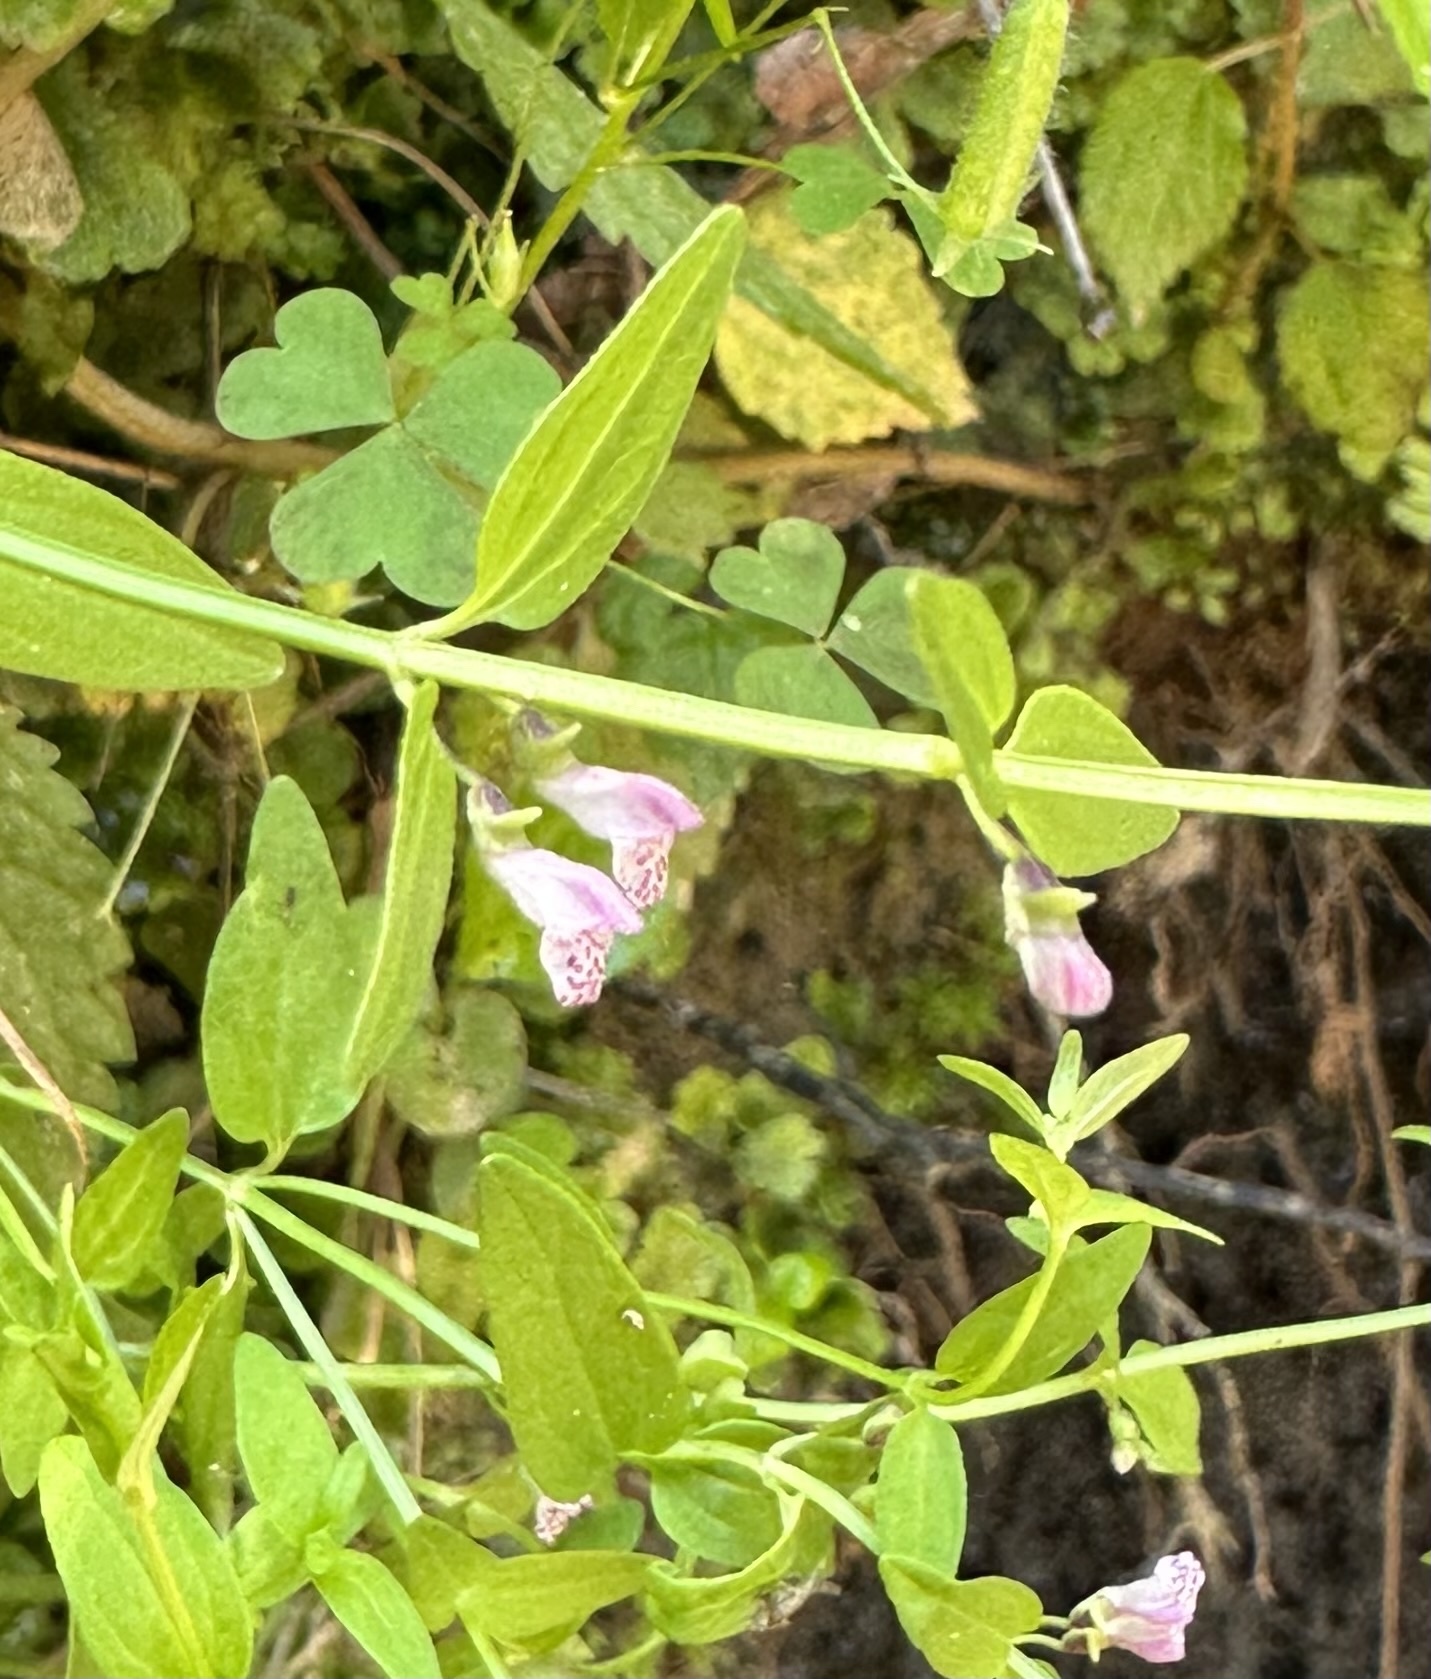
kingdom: Plantae
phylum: Tracheophyta
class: Magnoliopsida
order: Lamiales
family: Lamiaceae
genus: Scutellaria
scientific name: Scutellaria racemosa
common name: South american skullcap
